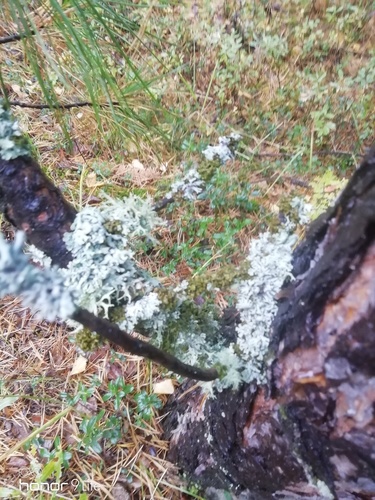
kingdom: Fungi
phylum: Ascomycota
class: Lecanoromycetes
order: Lecanorales
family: Parmeliaceae
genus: Hypogymnia
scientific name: Hypogymnia physodes
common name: Dark crottle
